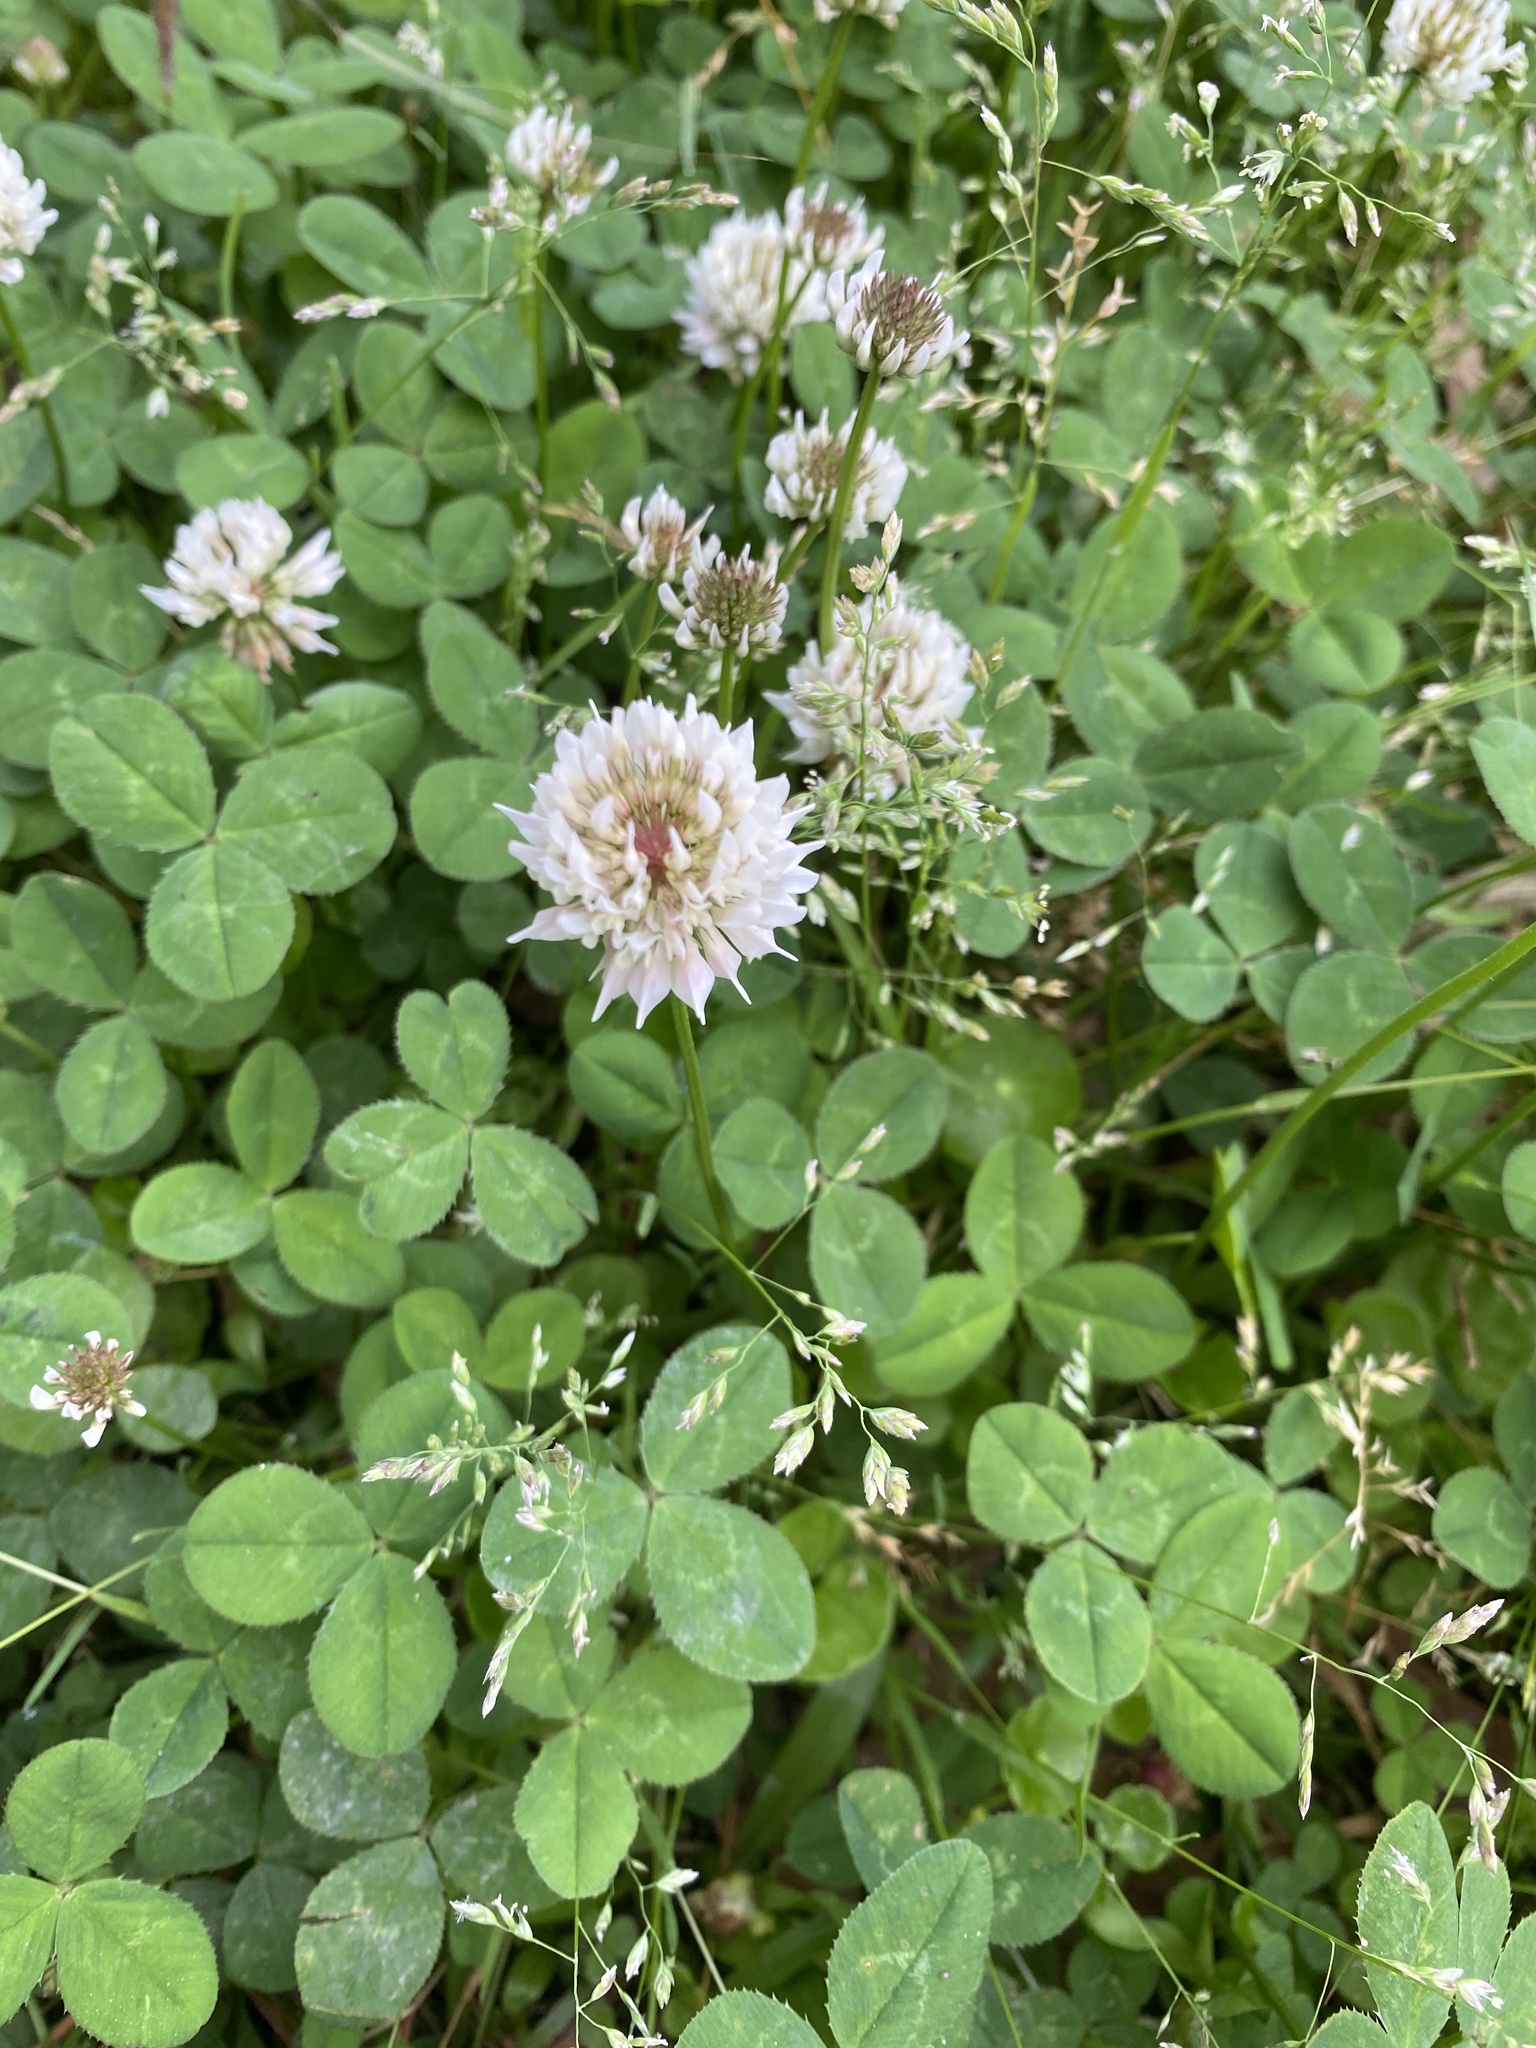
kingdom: Plantae
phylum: Tracheophyta
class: Magnoliopsida
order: Fabales
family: Fabaceae
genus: Trifolium
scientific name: Trifolium repens
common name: White clover
